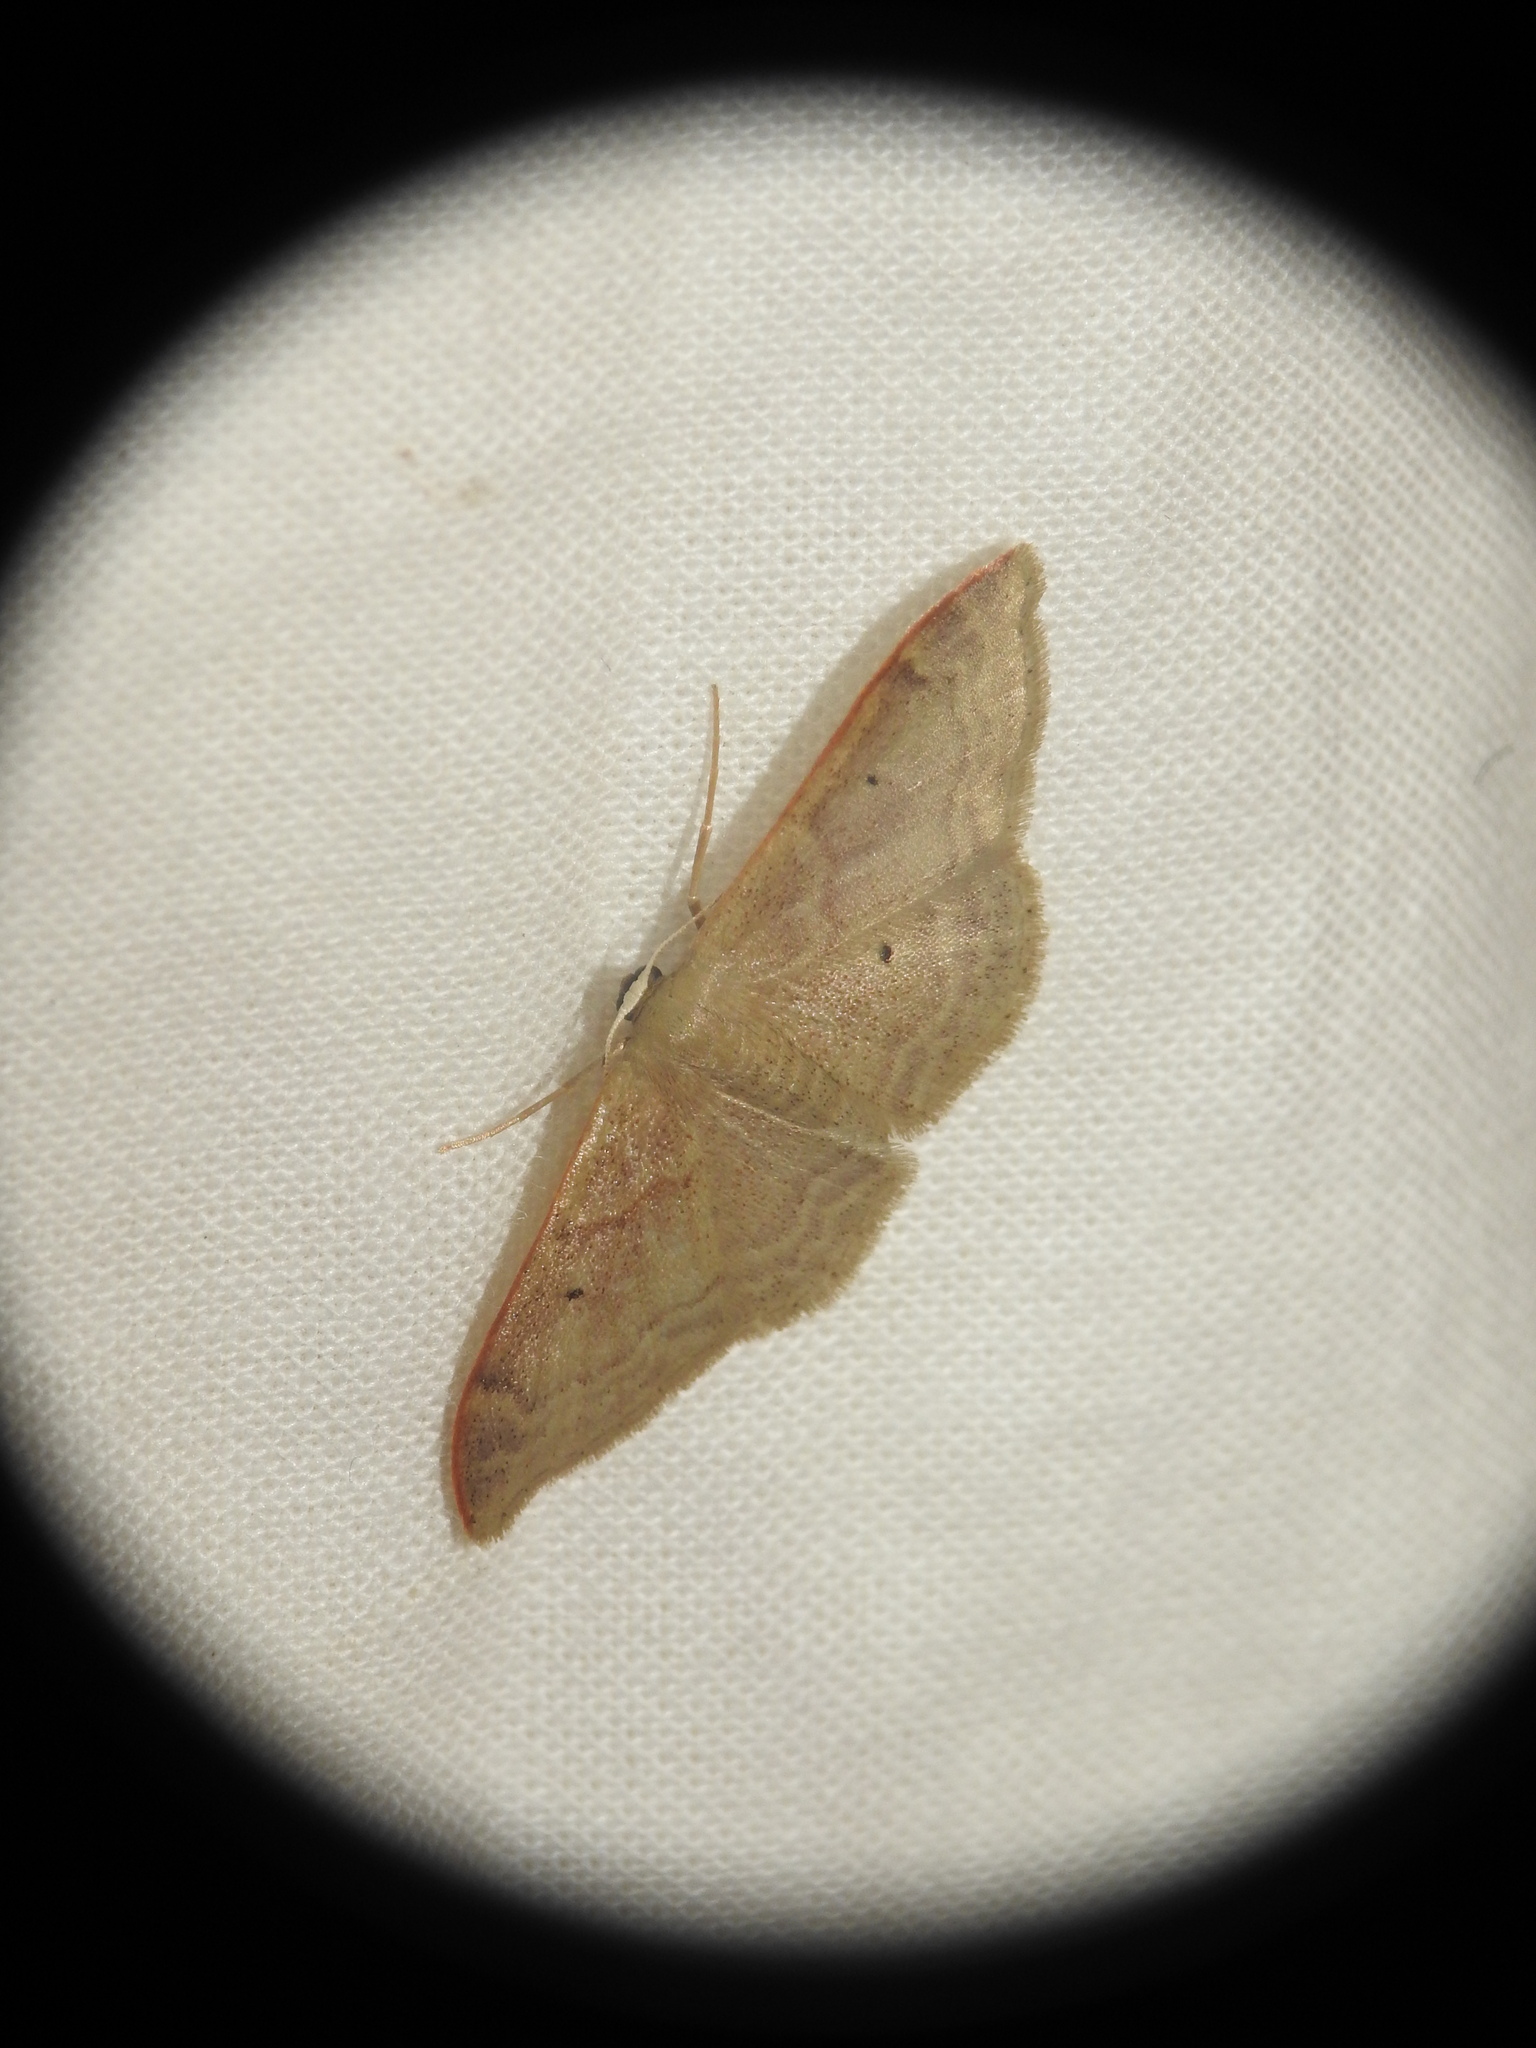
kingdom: Animalia
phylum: Arthropoda
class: Insecta
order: Lepidoptera
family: Geometridae
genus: Idaea
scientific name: Idaea degeneraria
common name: Portland ribbon wave
